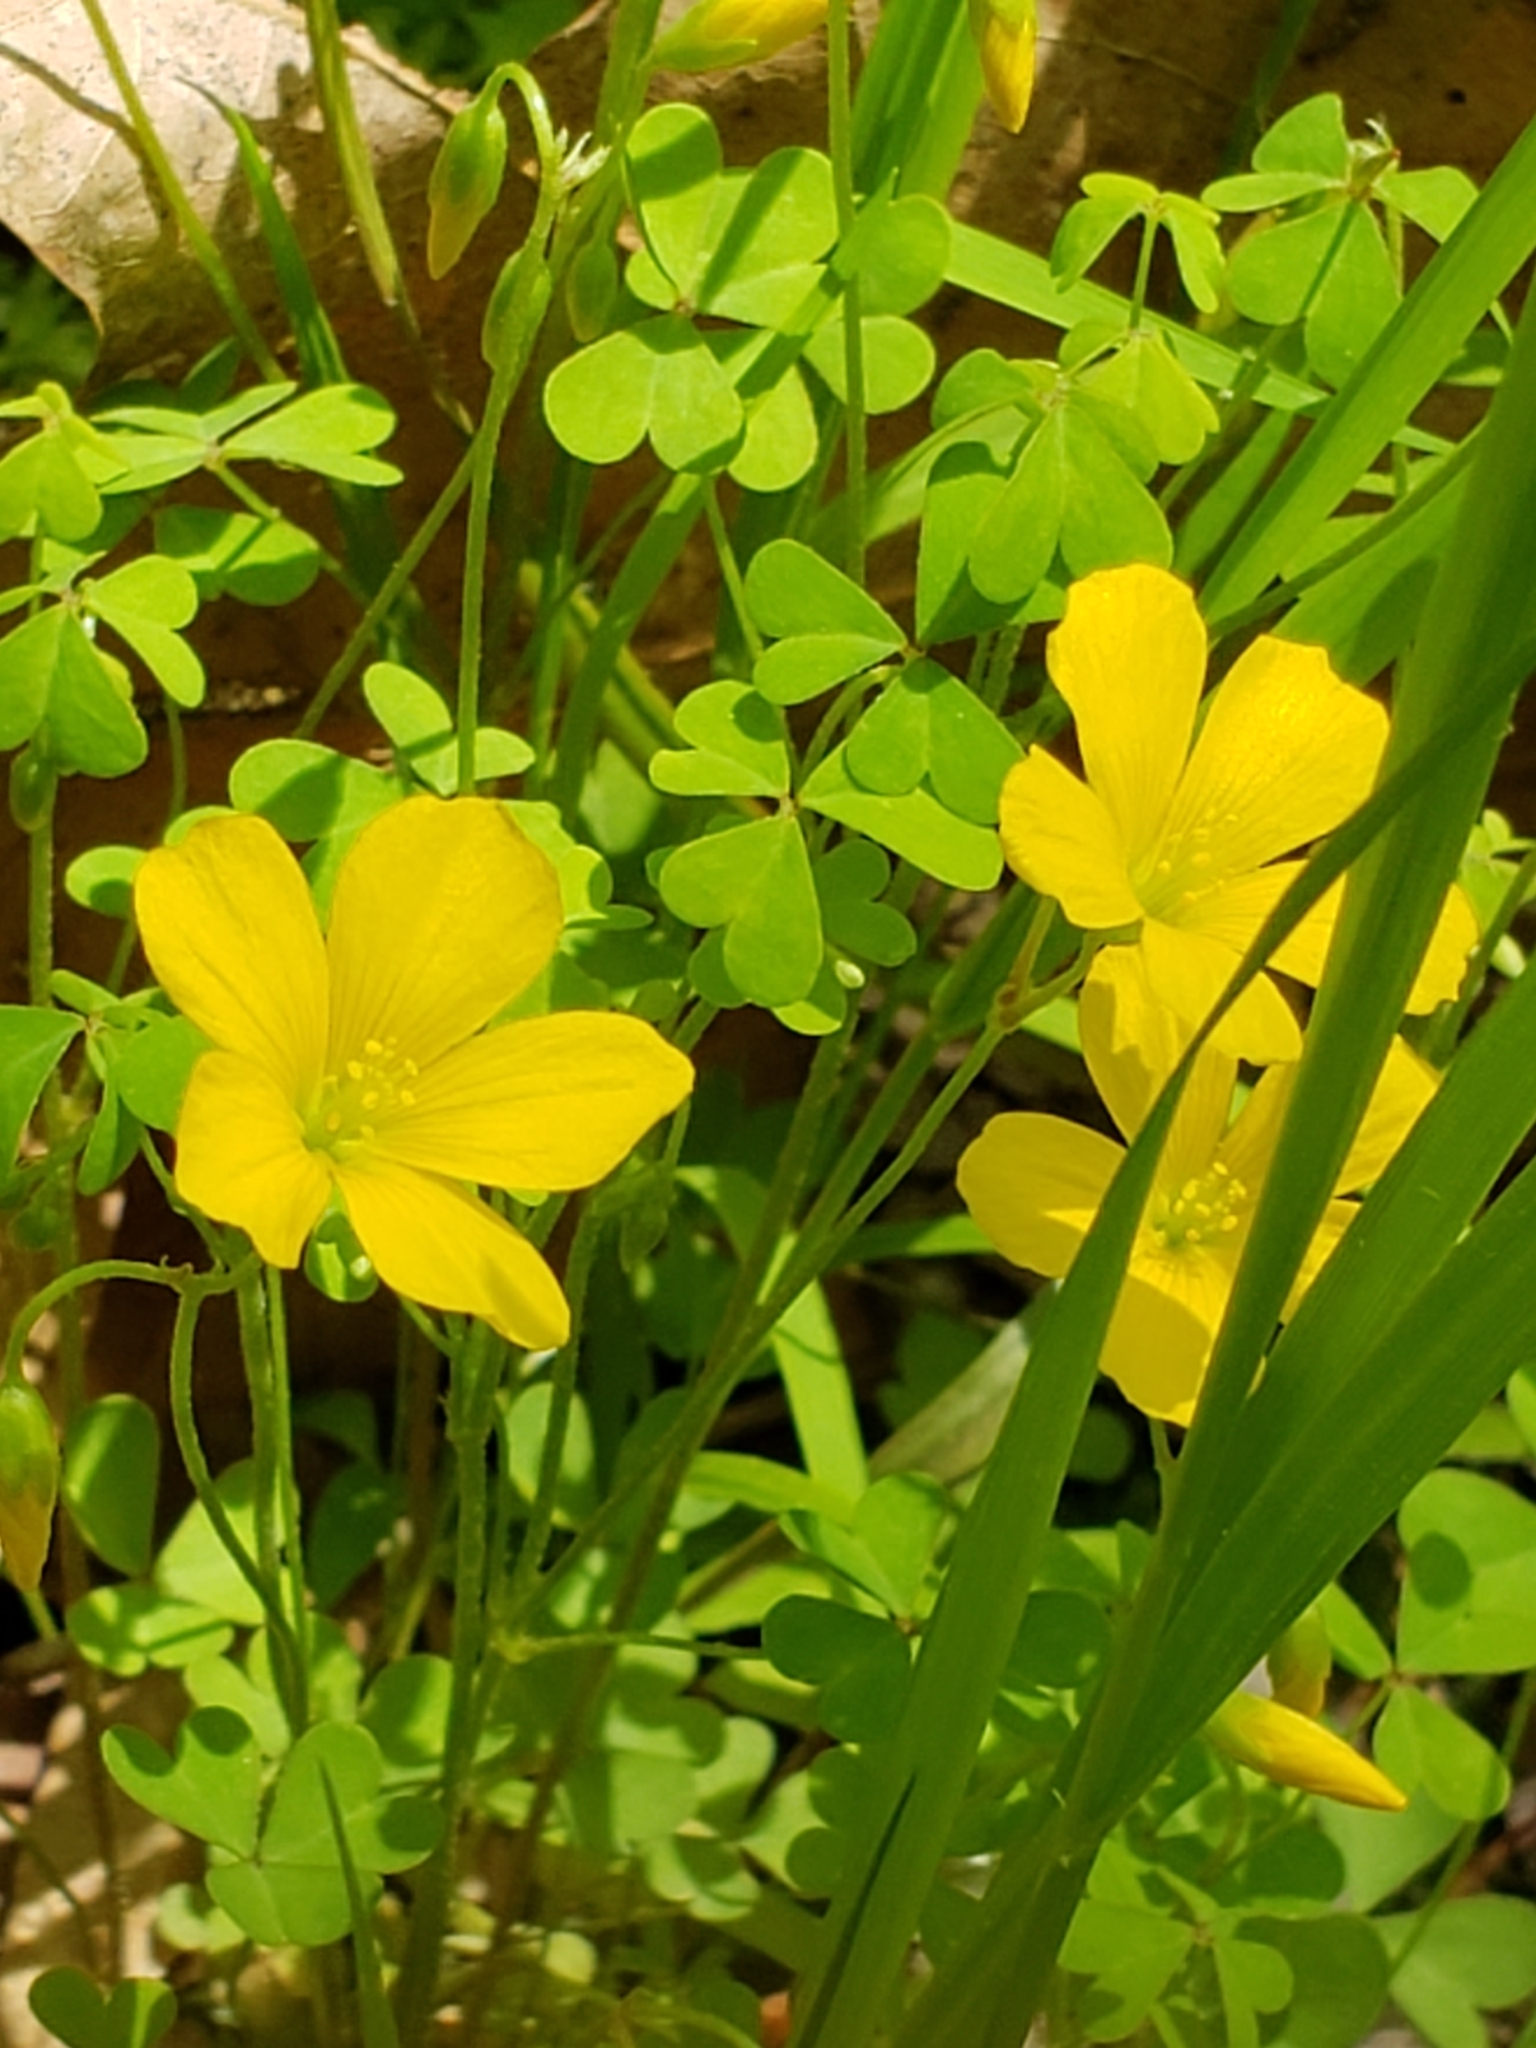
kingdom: Plantae
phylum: Tracheophyta
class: Magnoliopsida
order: Oxalidales
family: Oxalidaceae
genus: Oxalis
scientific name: Oxalis dillenii
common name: Sussex yellow-sorrel
